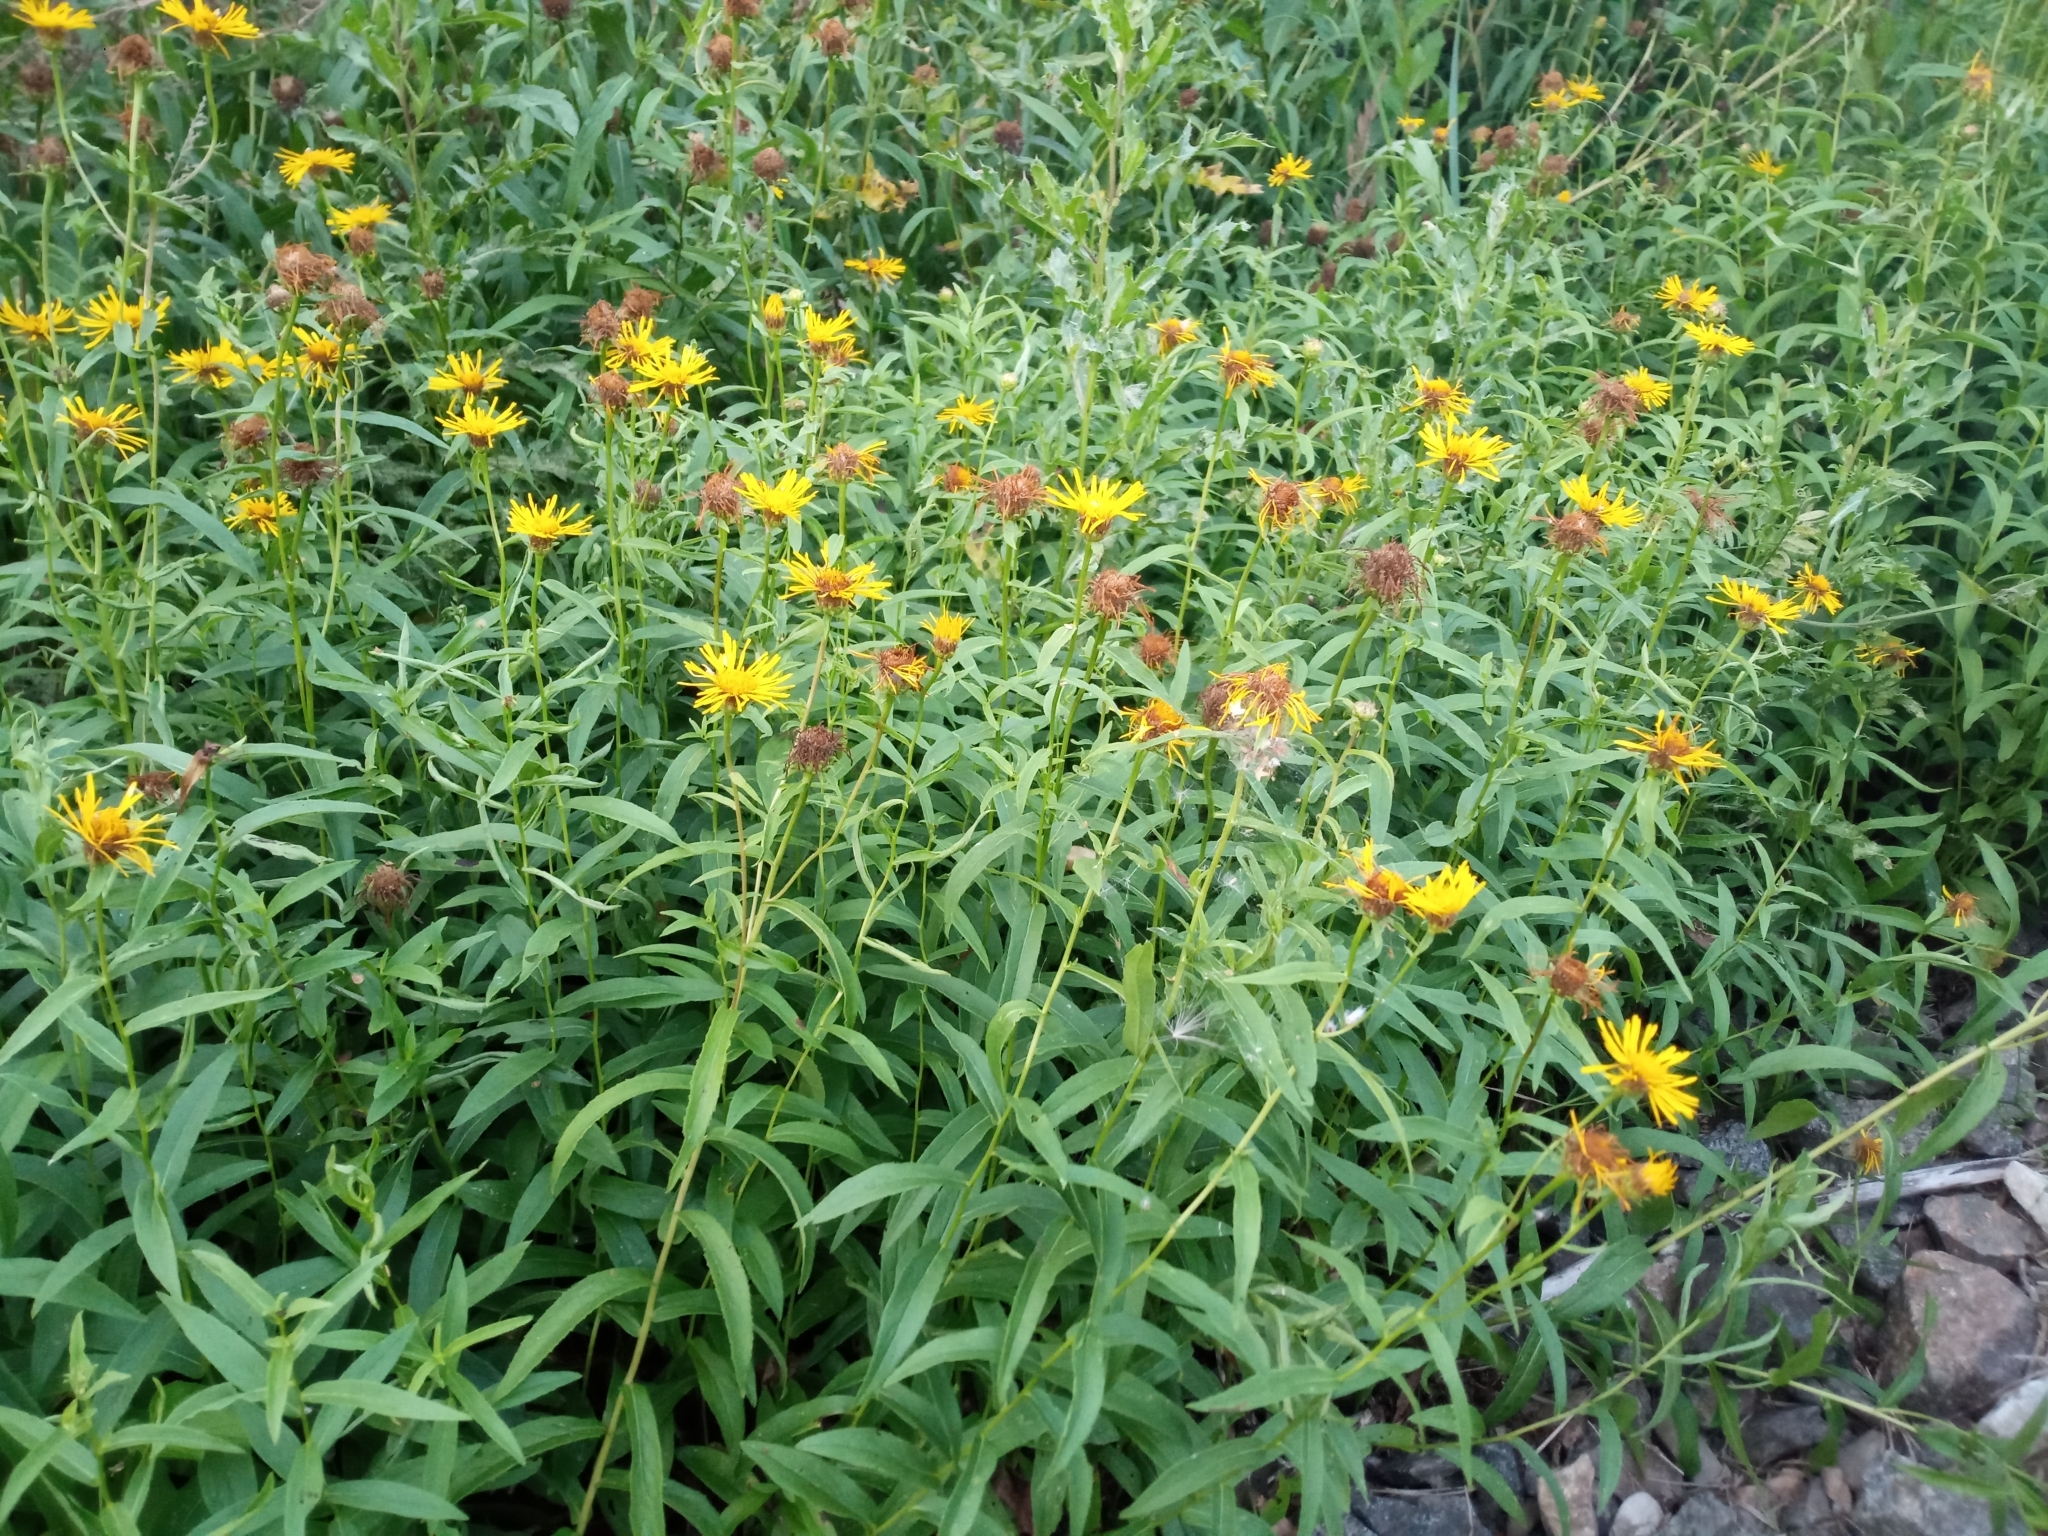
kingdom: Plantae
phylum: Tracheophyta
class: Magnoliopsida
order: Asterales
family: Asteraceae
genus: Pentanema
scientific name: Pentanema salicinum
